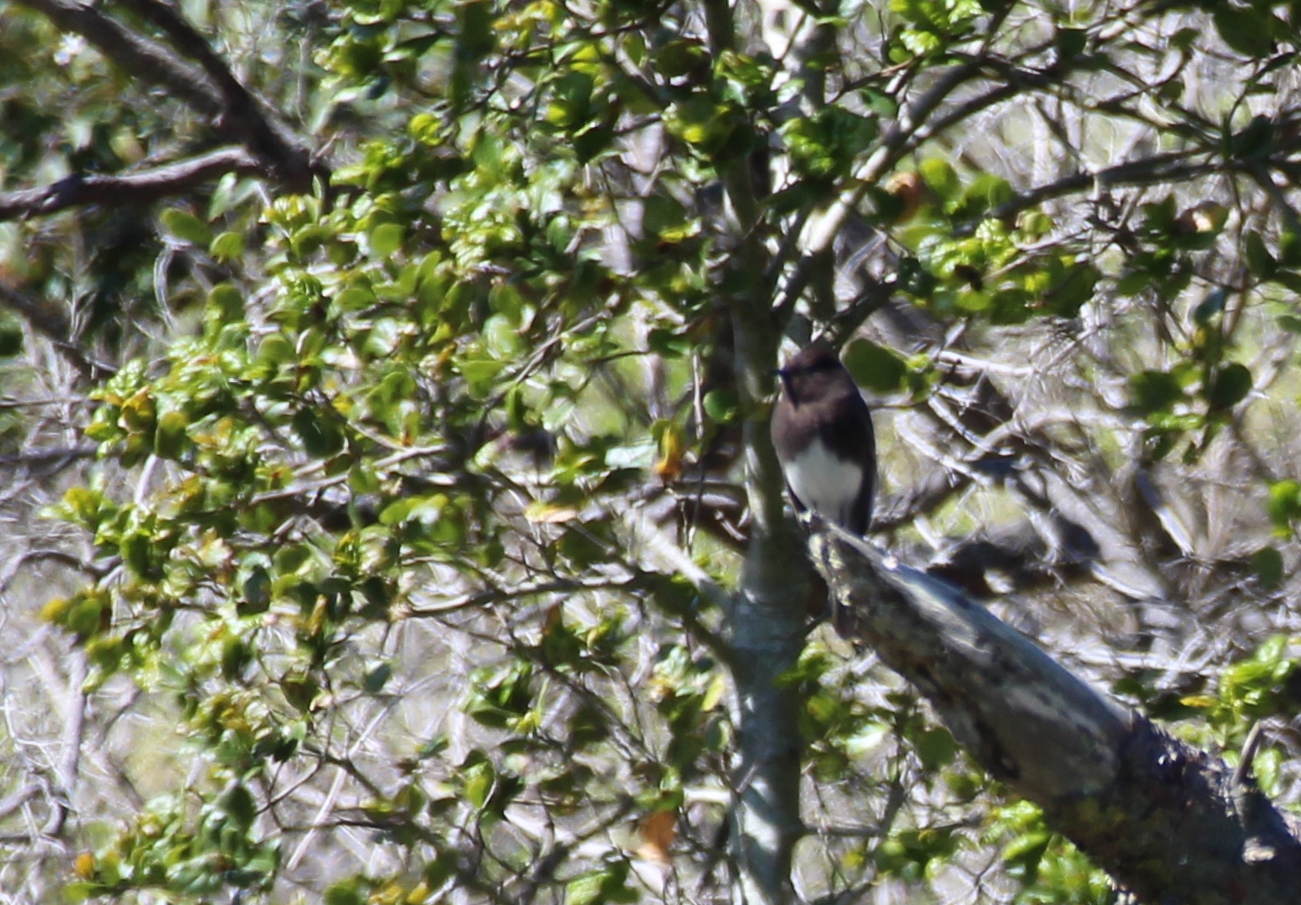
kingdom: Animalia
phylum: Chordata
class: Aves
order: Passeriformes
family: Tyrannidae
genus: Sayornis
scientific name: Sayornis nigricans
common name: Black phoebe
